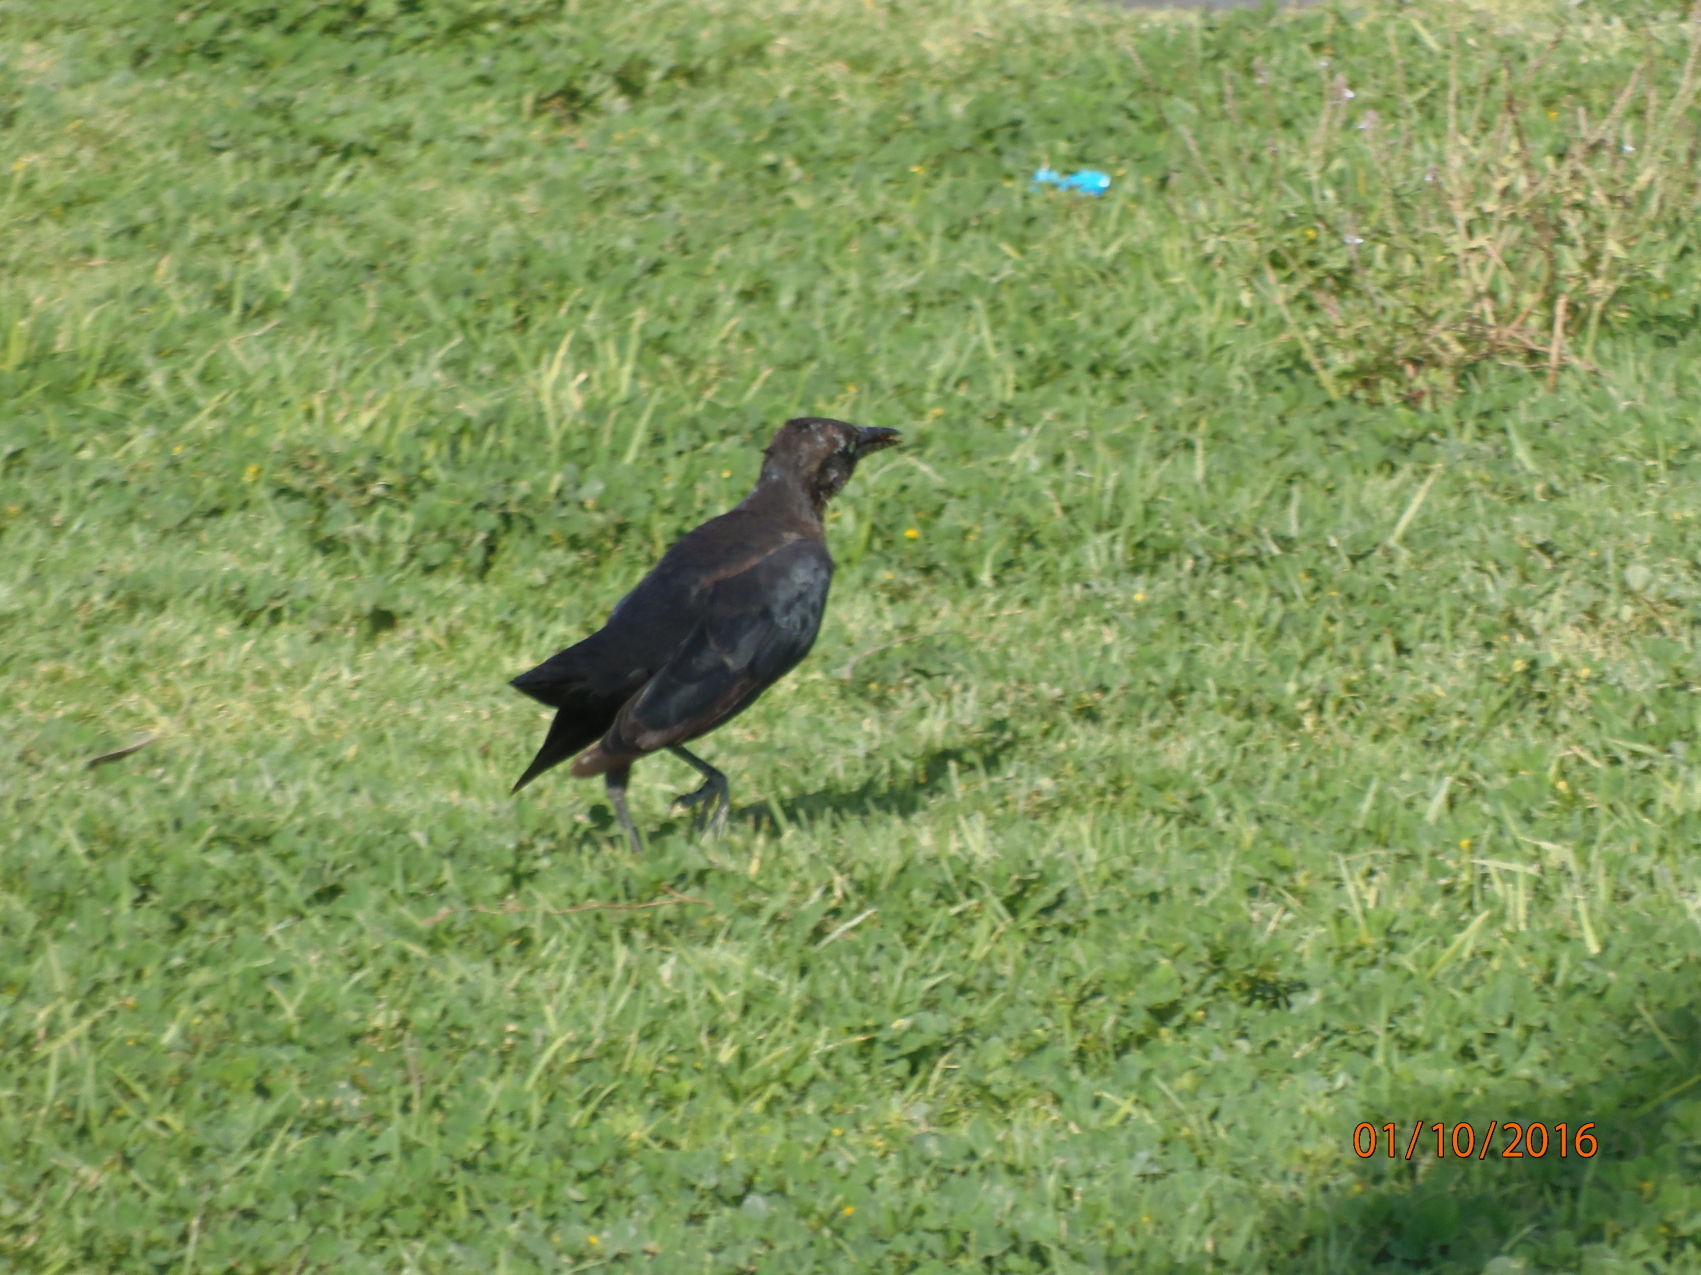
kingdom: Animalia
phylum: Chordata
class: Aves
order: Passeriformes
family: Icteridae
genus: Quiscalus
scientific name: Quiscalus mexicanus
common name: Great-tailed grackle
